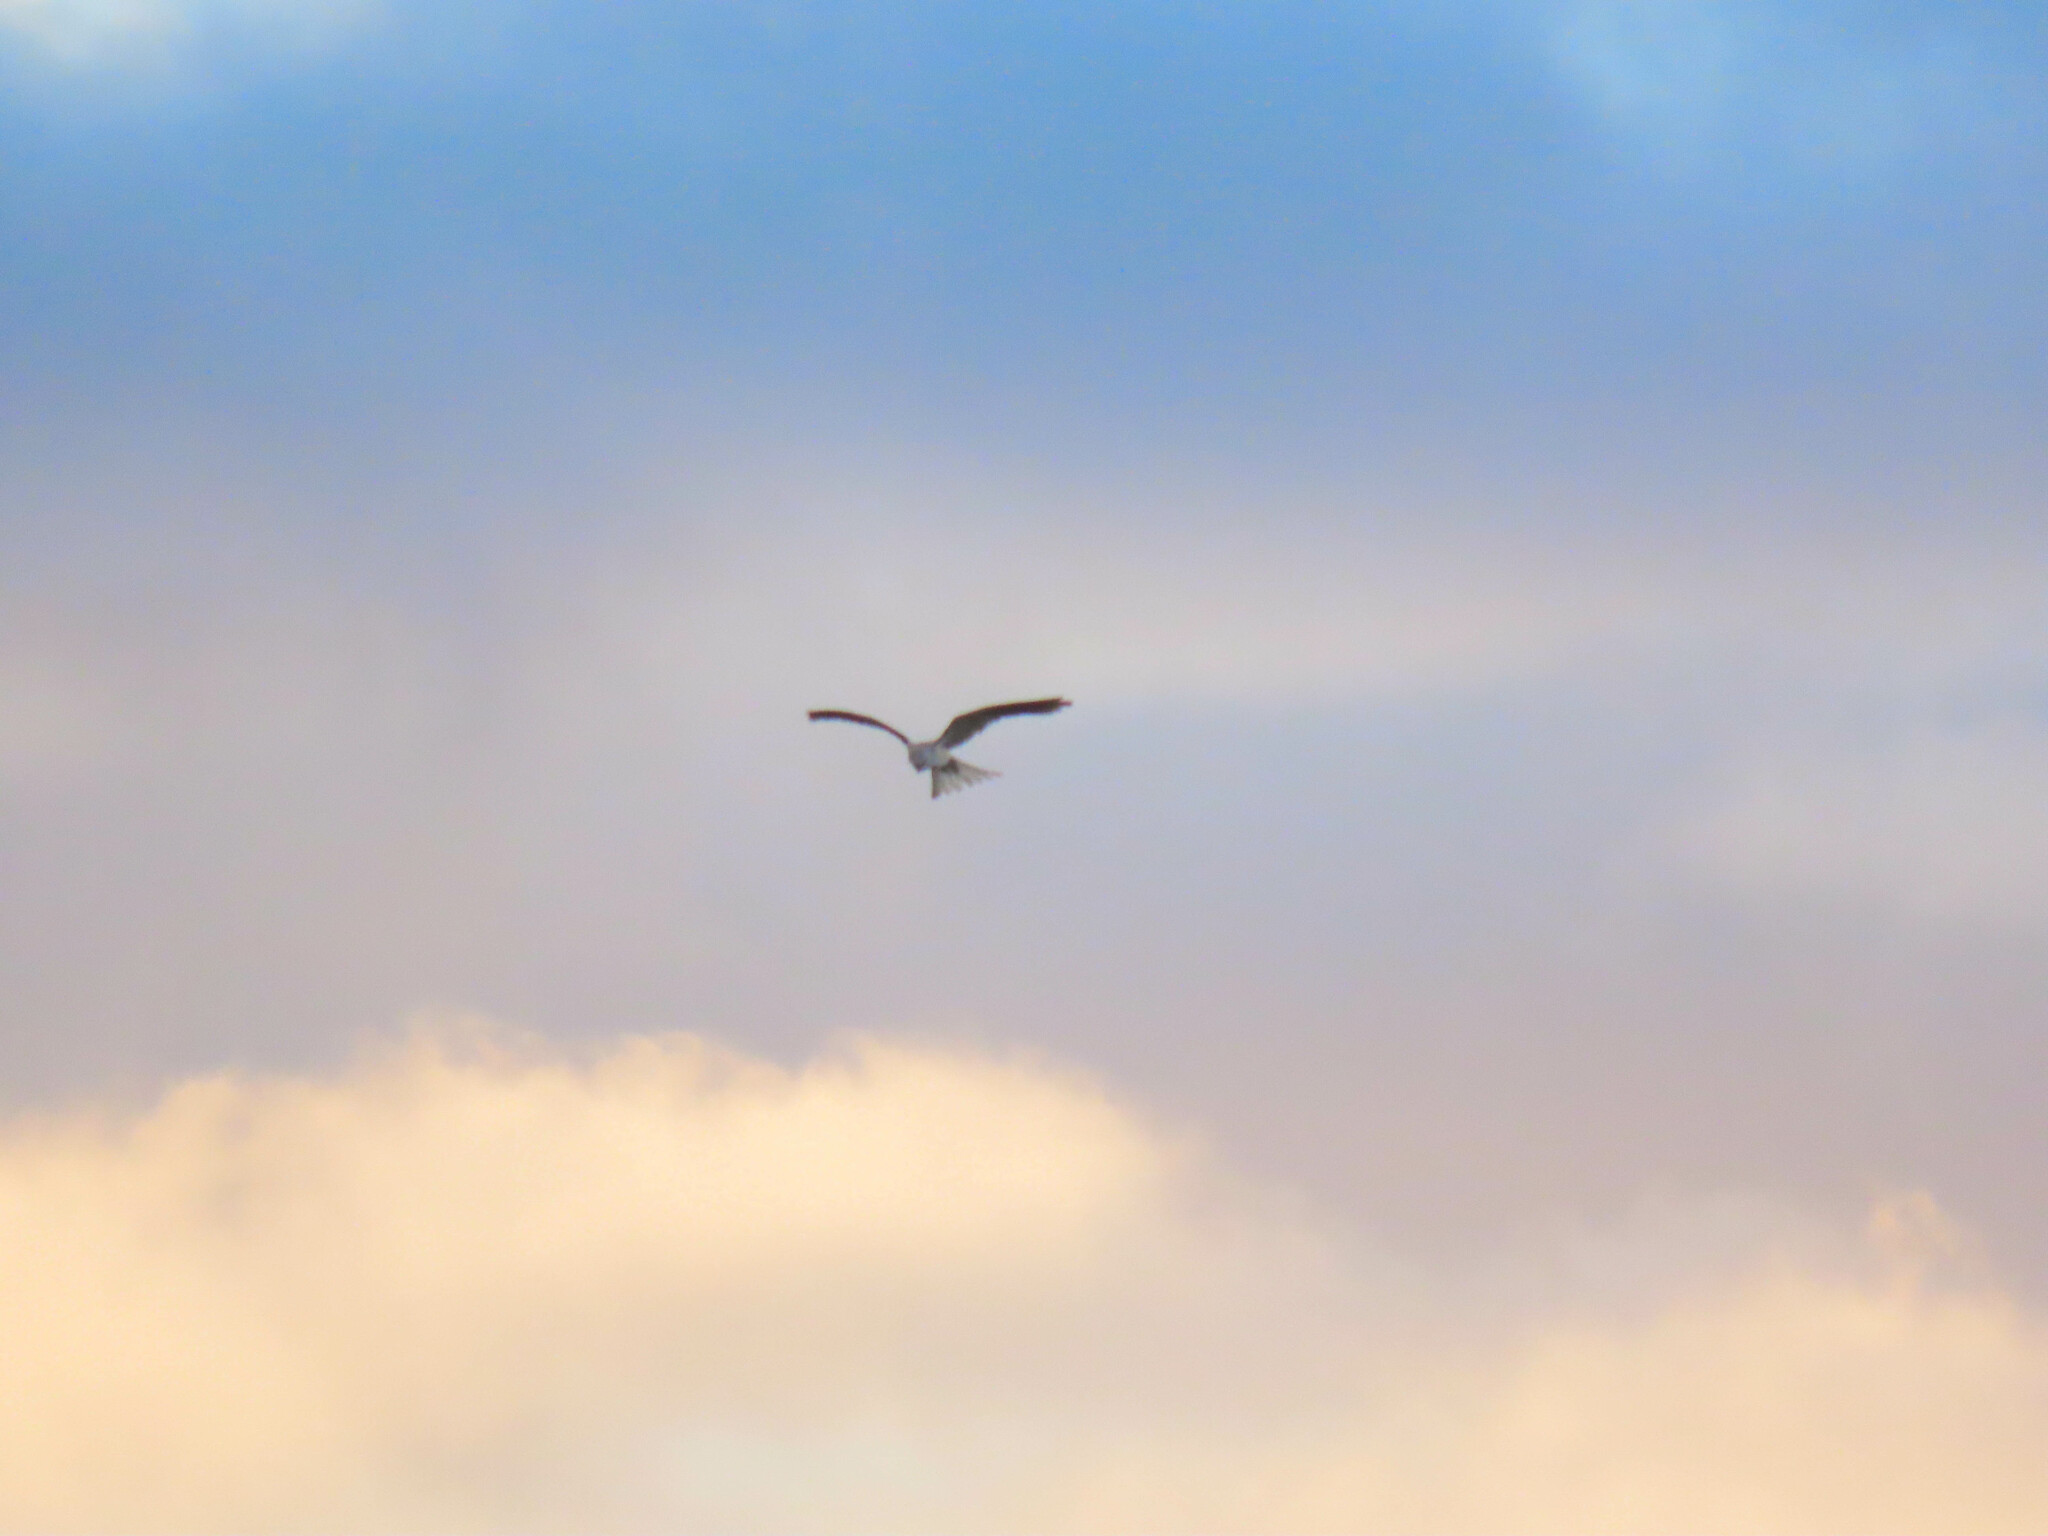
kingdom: Animalia
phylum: Chordata
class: Aves
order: Accipitriformes
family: Accipitridae
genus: Elanus
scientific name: Elanus leucurus
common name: White-tailed kite
